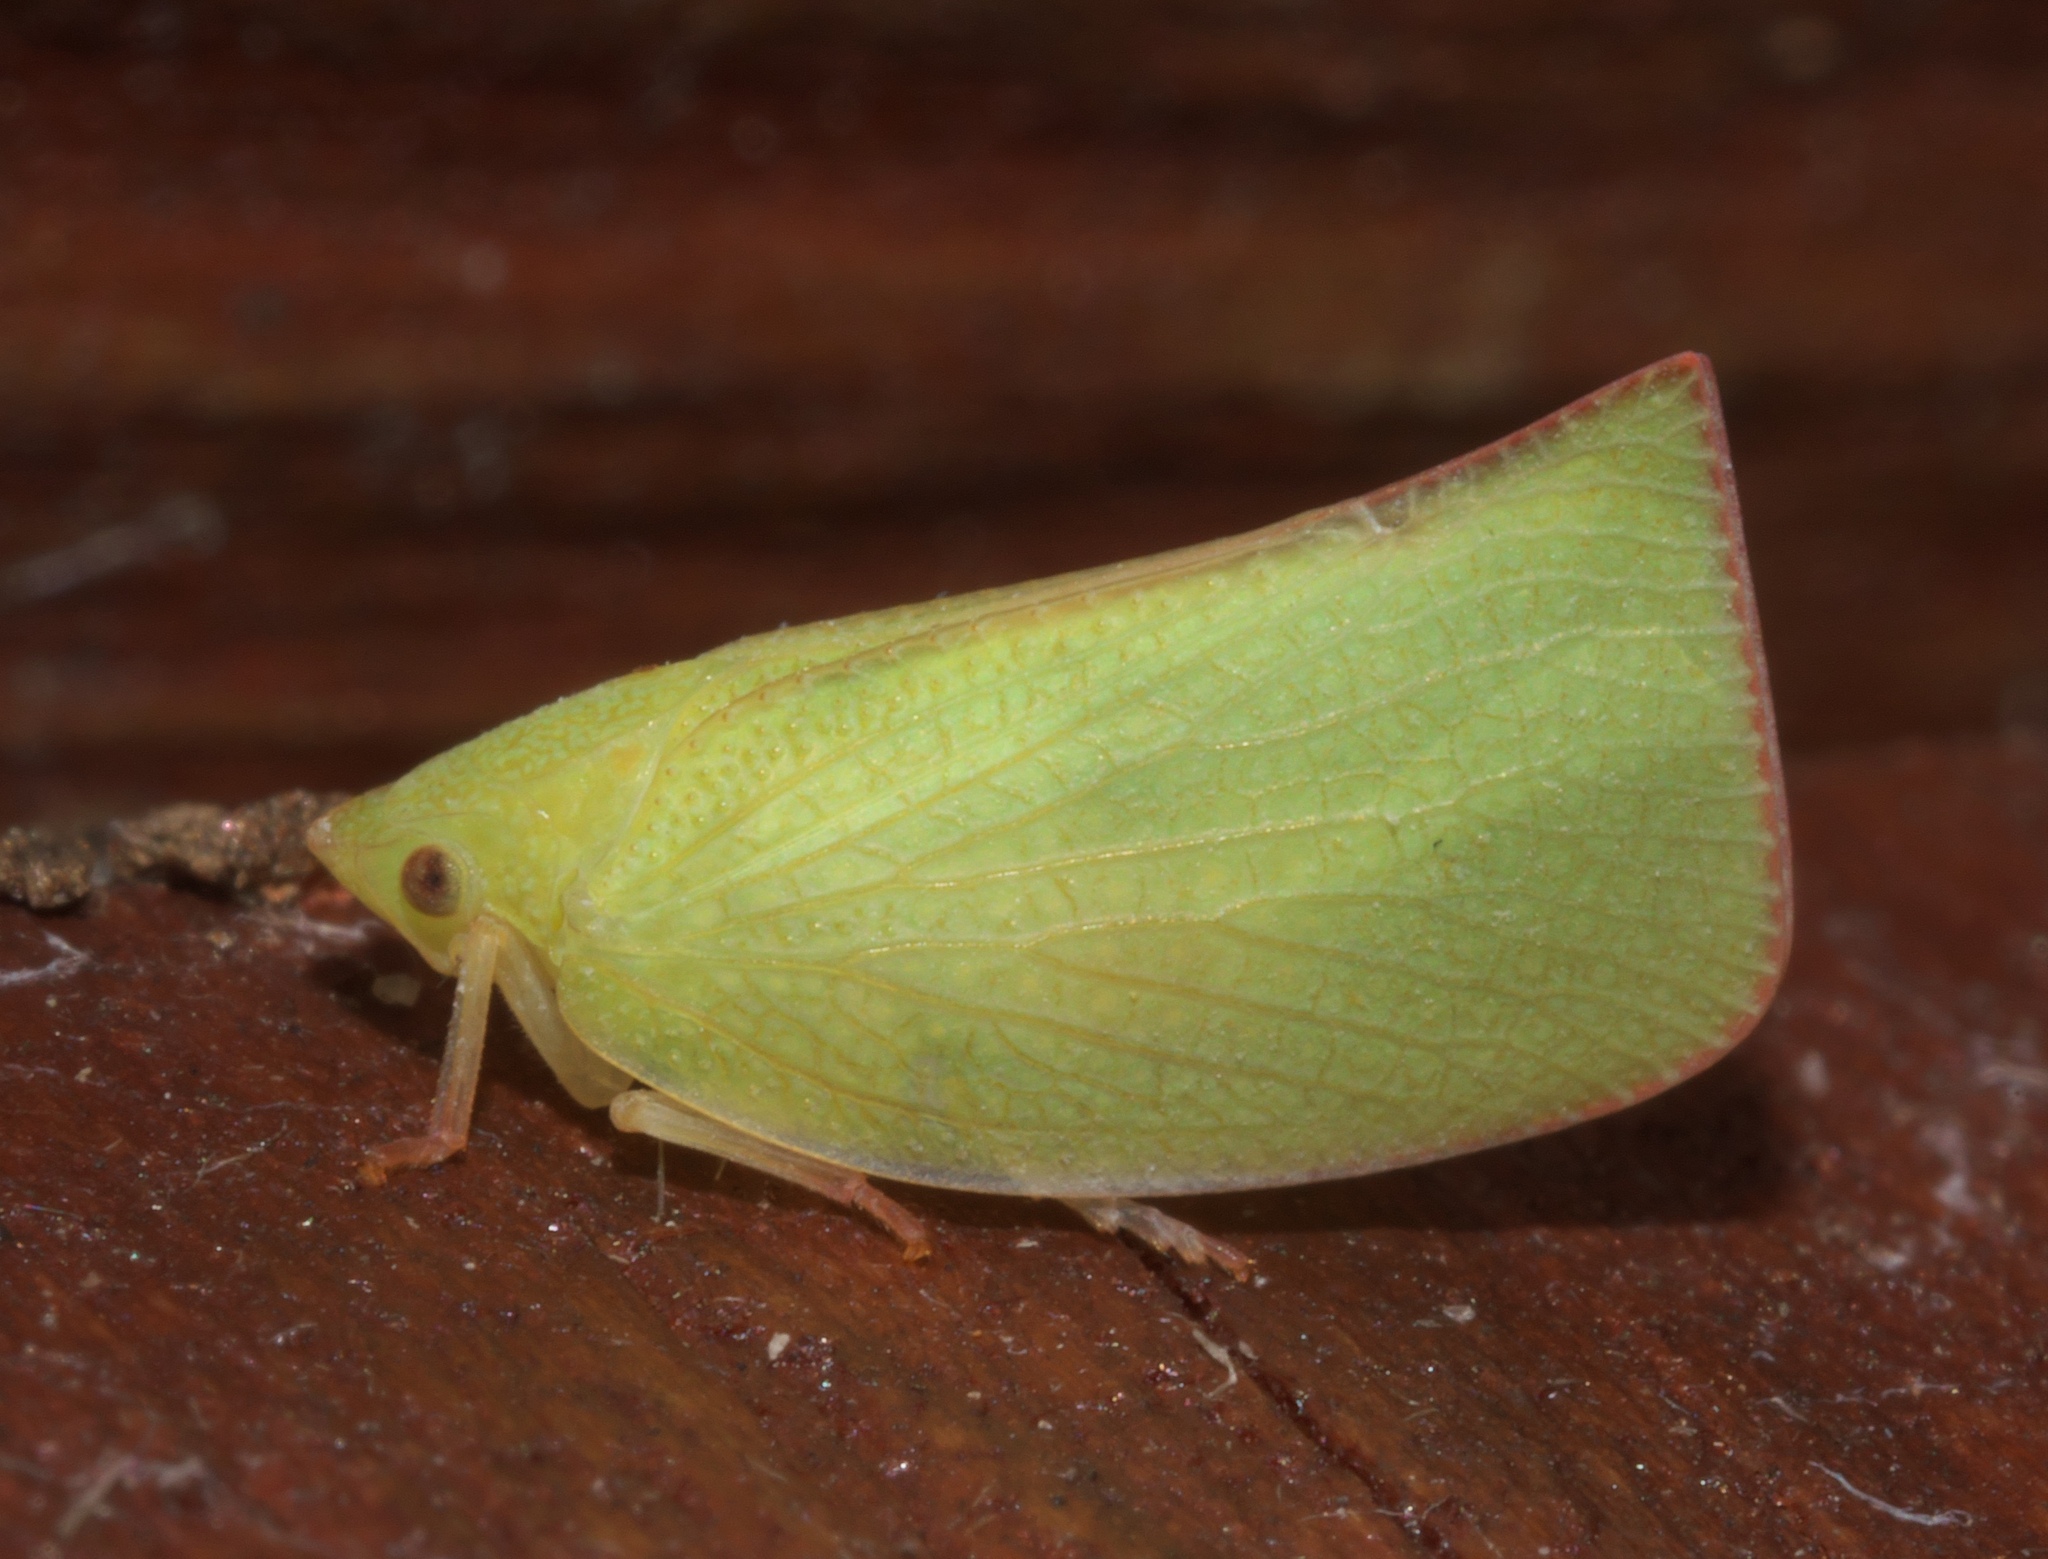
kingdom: Animalia
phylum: Arthropoda
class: Insecta
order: Hemiptera
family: Flatidae
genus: Siphanta
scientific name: Siphanta acuta
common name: Torpedo bug
